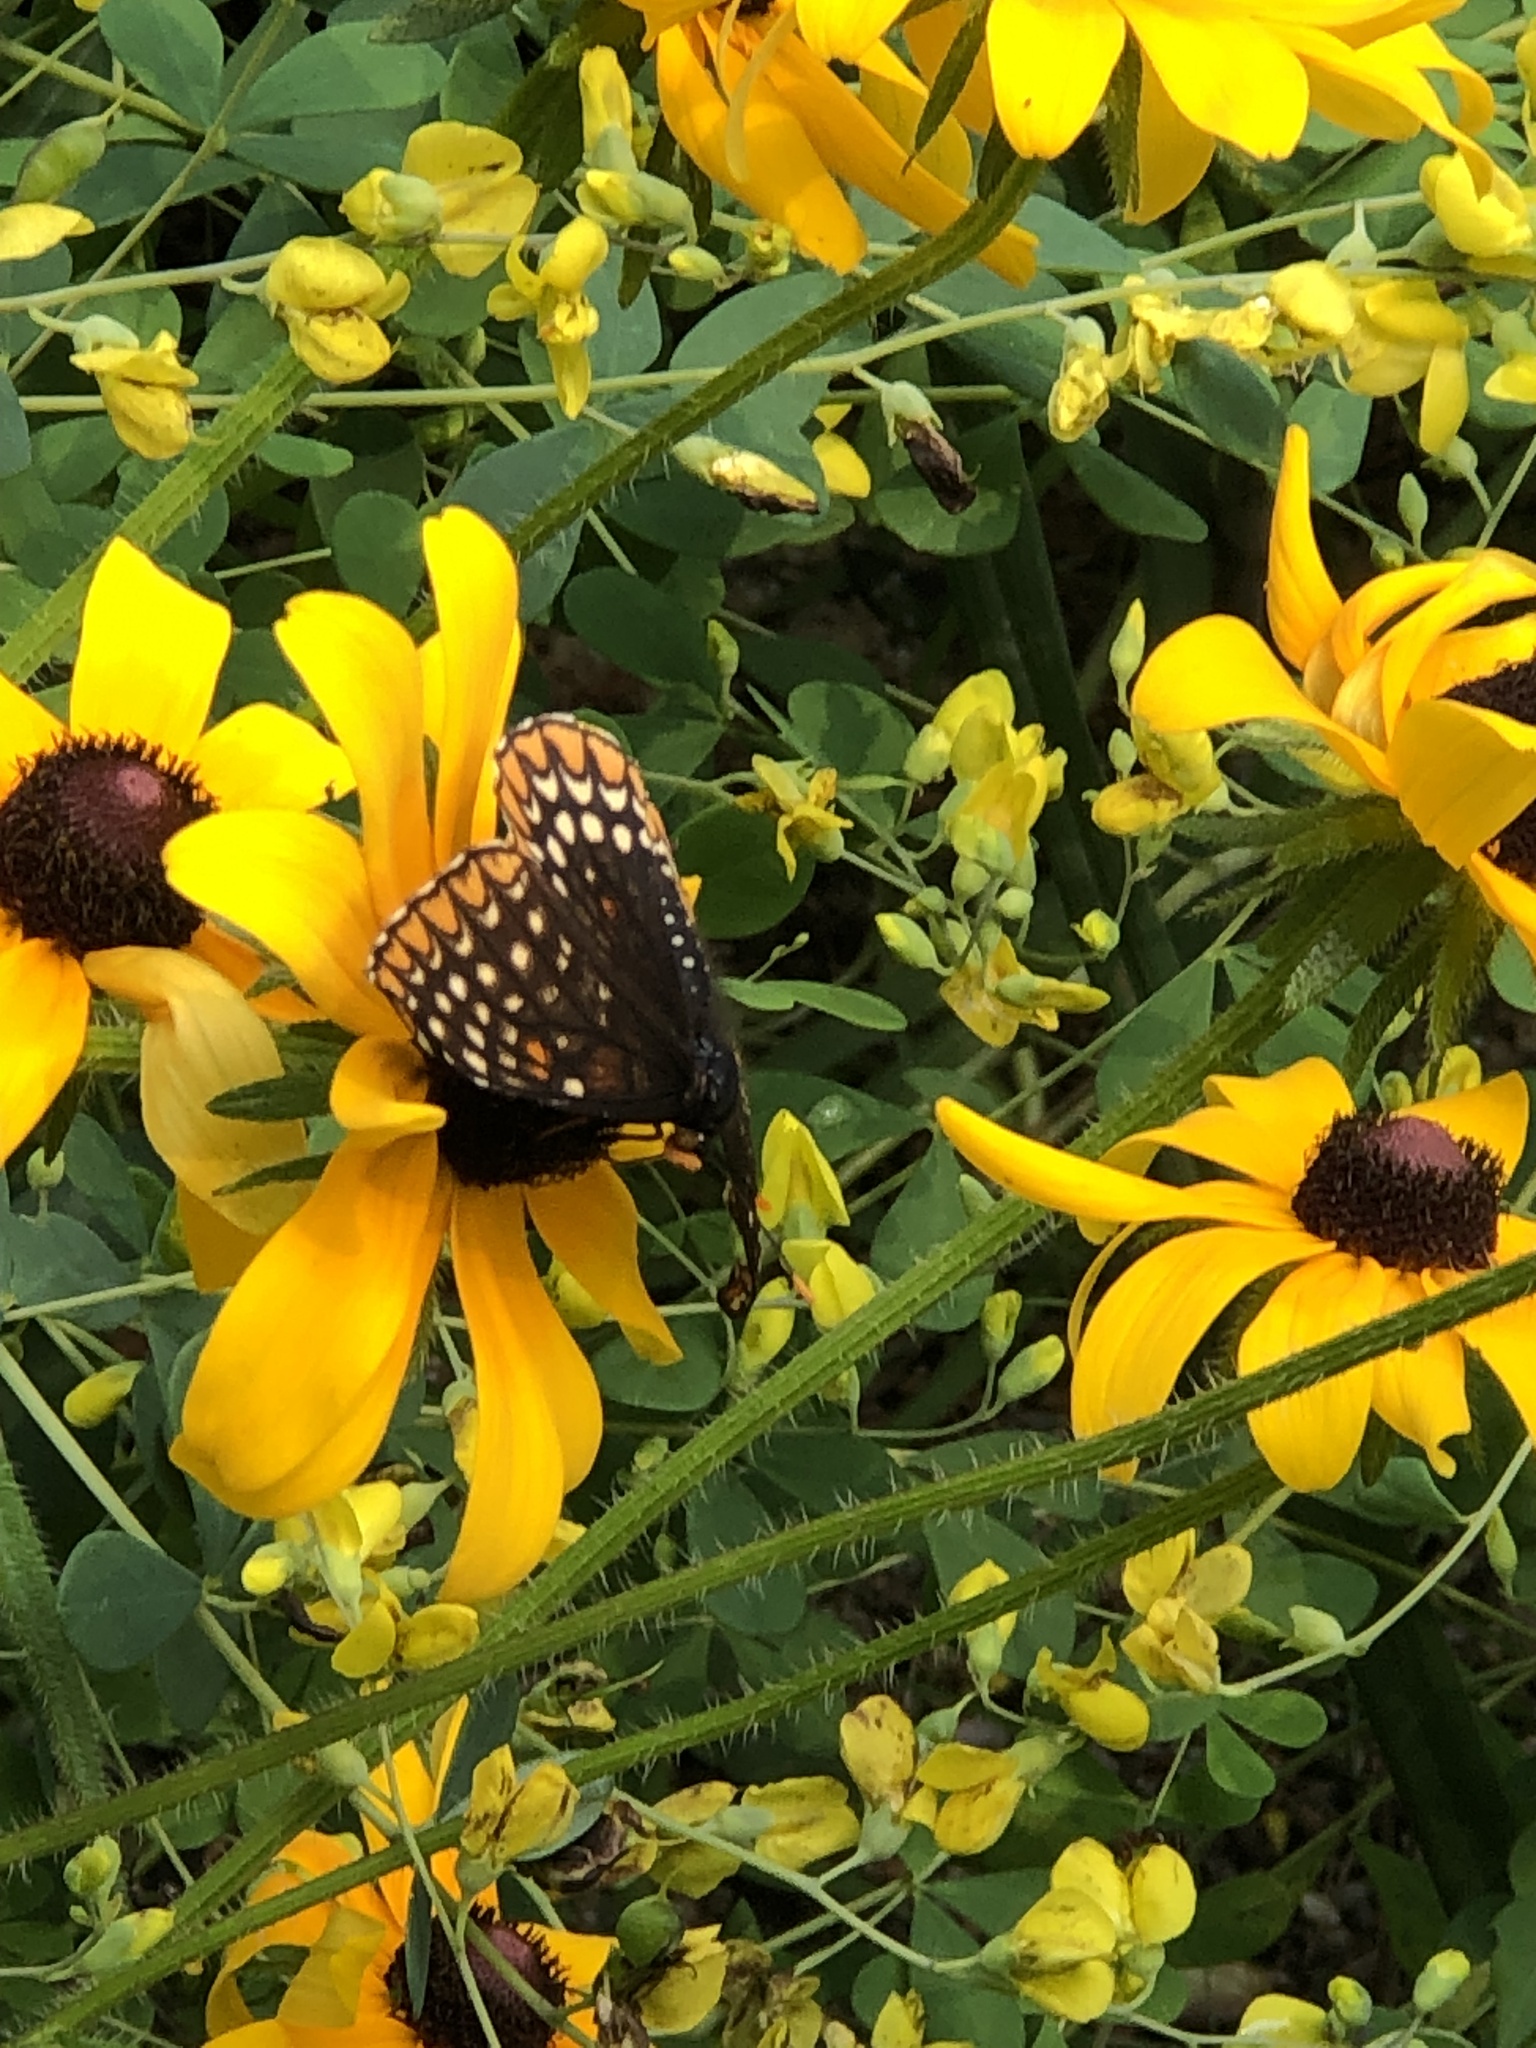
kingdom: Animalia
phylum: Arthropoda
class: Insecta
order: Lepidoptera
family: Nymphalidae
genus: Euphydryas
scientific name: Euphydryas phaeton
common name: Baltimore checkerspot
